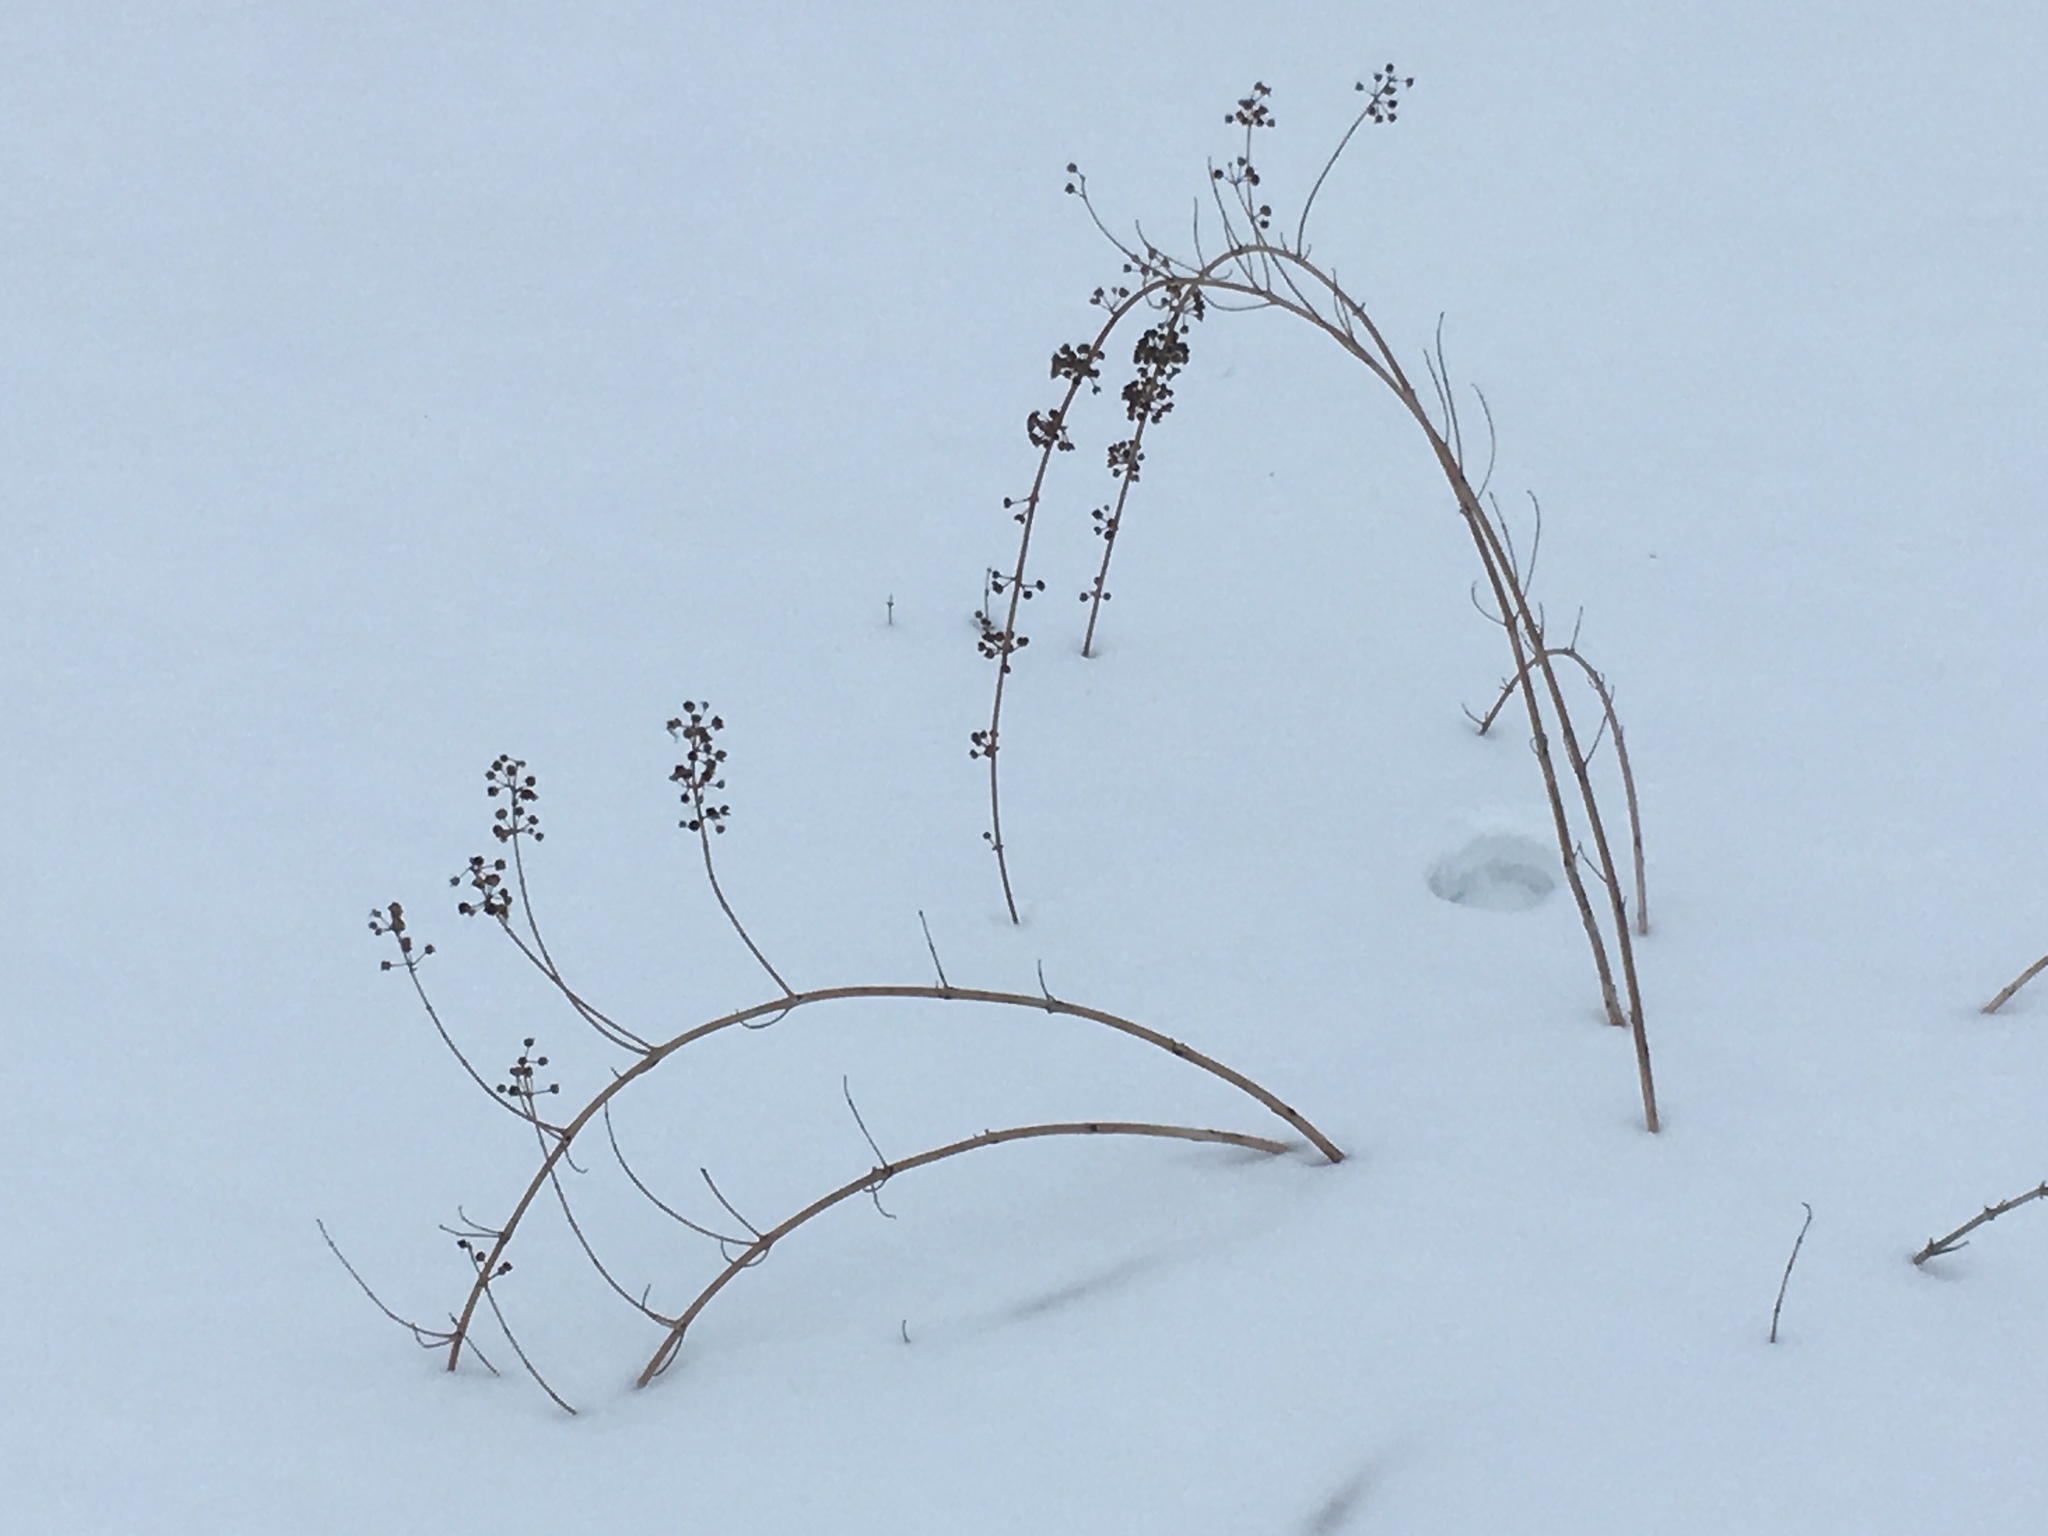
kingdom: Plantae
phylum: Tracheophyta
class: Magnoliopsida
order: Myrtales
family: Lythraceae
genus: Decodon
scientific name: Decodon verticillatus
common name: Hairy swamp loosestrife
